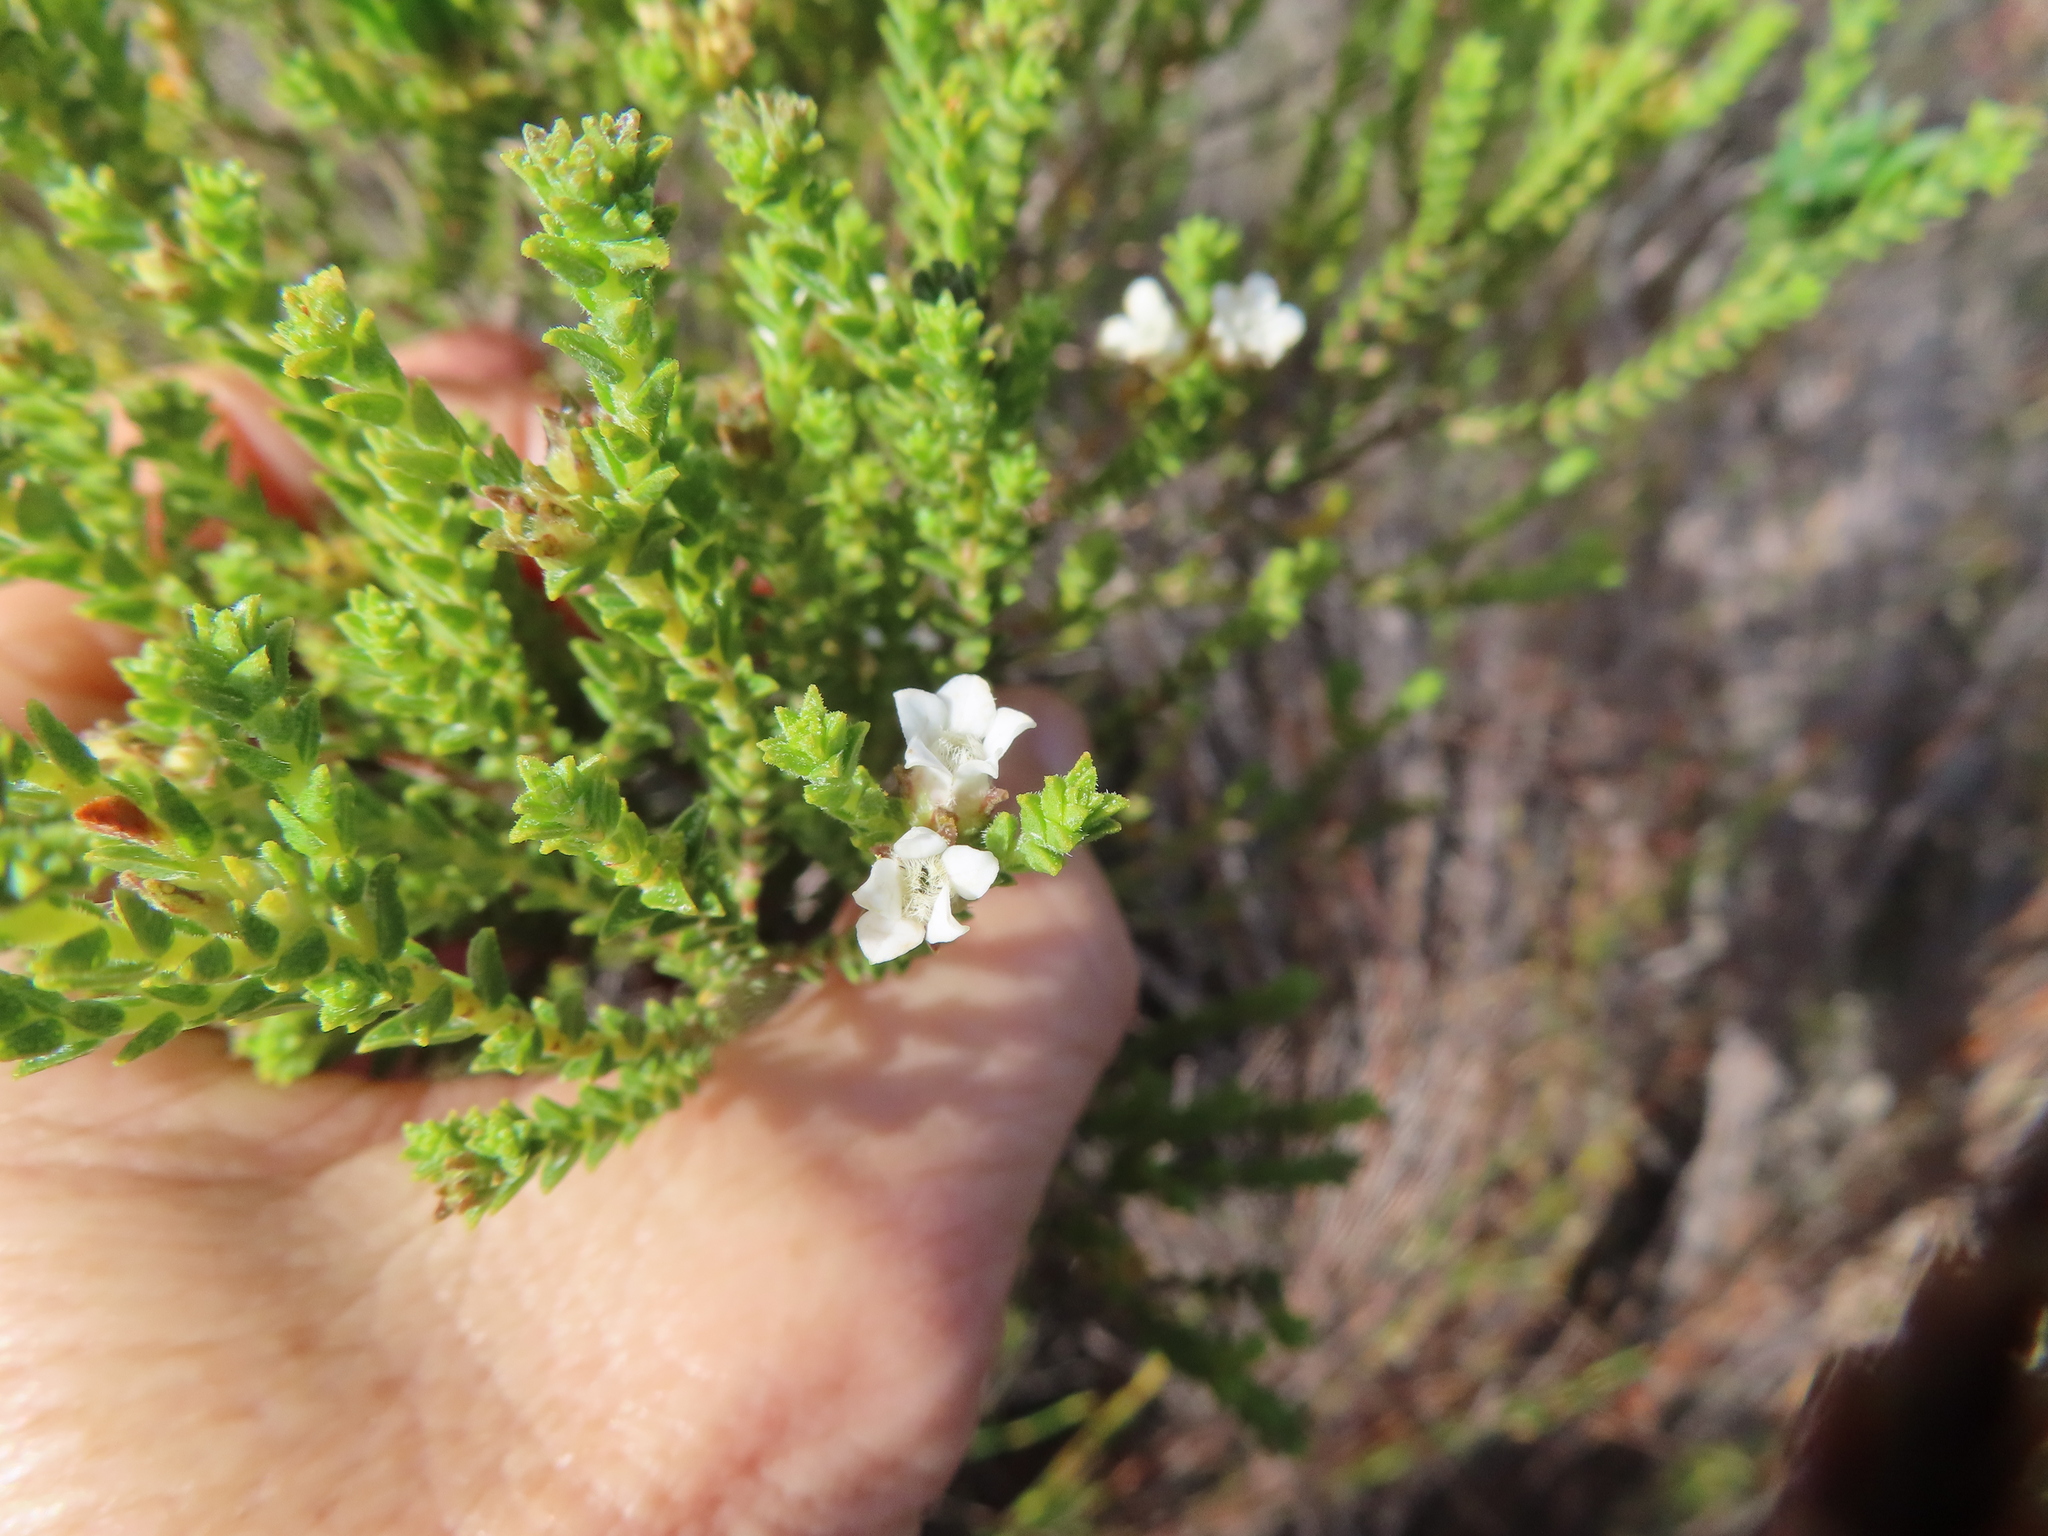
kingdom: Plantae
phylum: Tracheophyta
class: Magnoliopsida
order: Sapindales
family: Rutaceae
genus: Euchaetis
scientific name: Euchaetis burchellii
